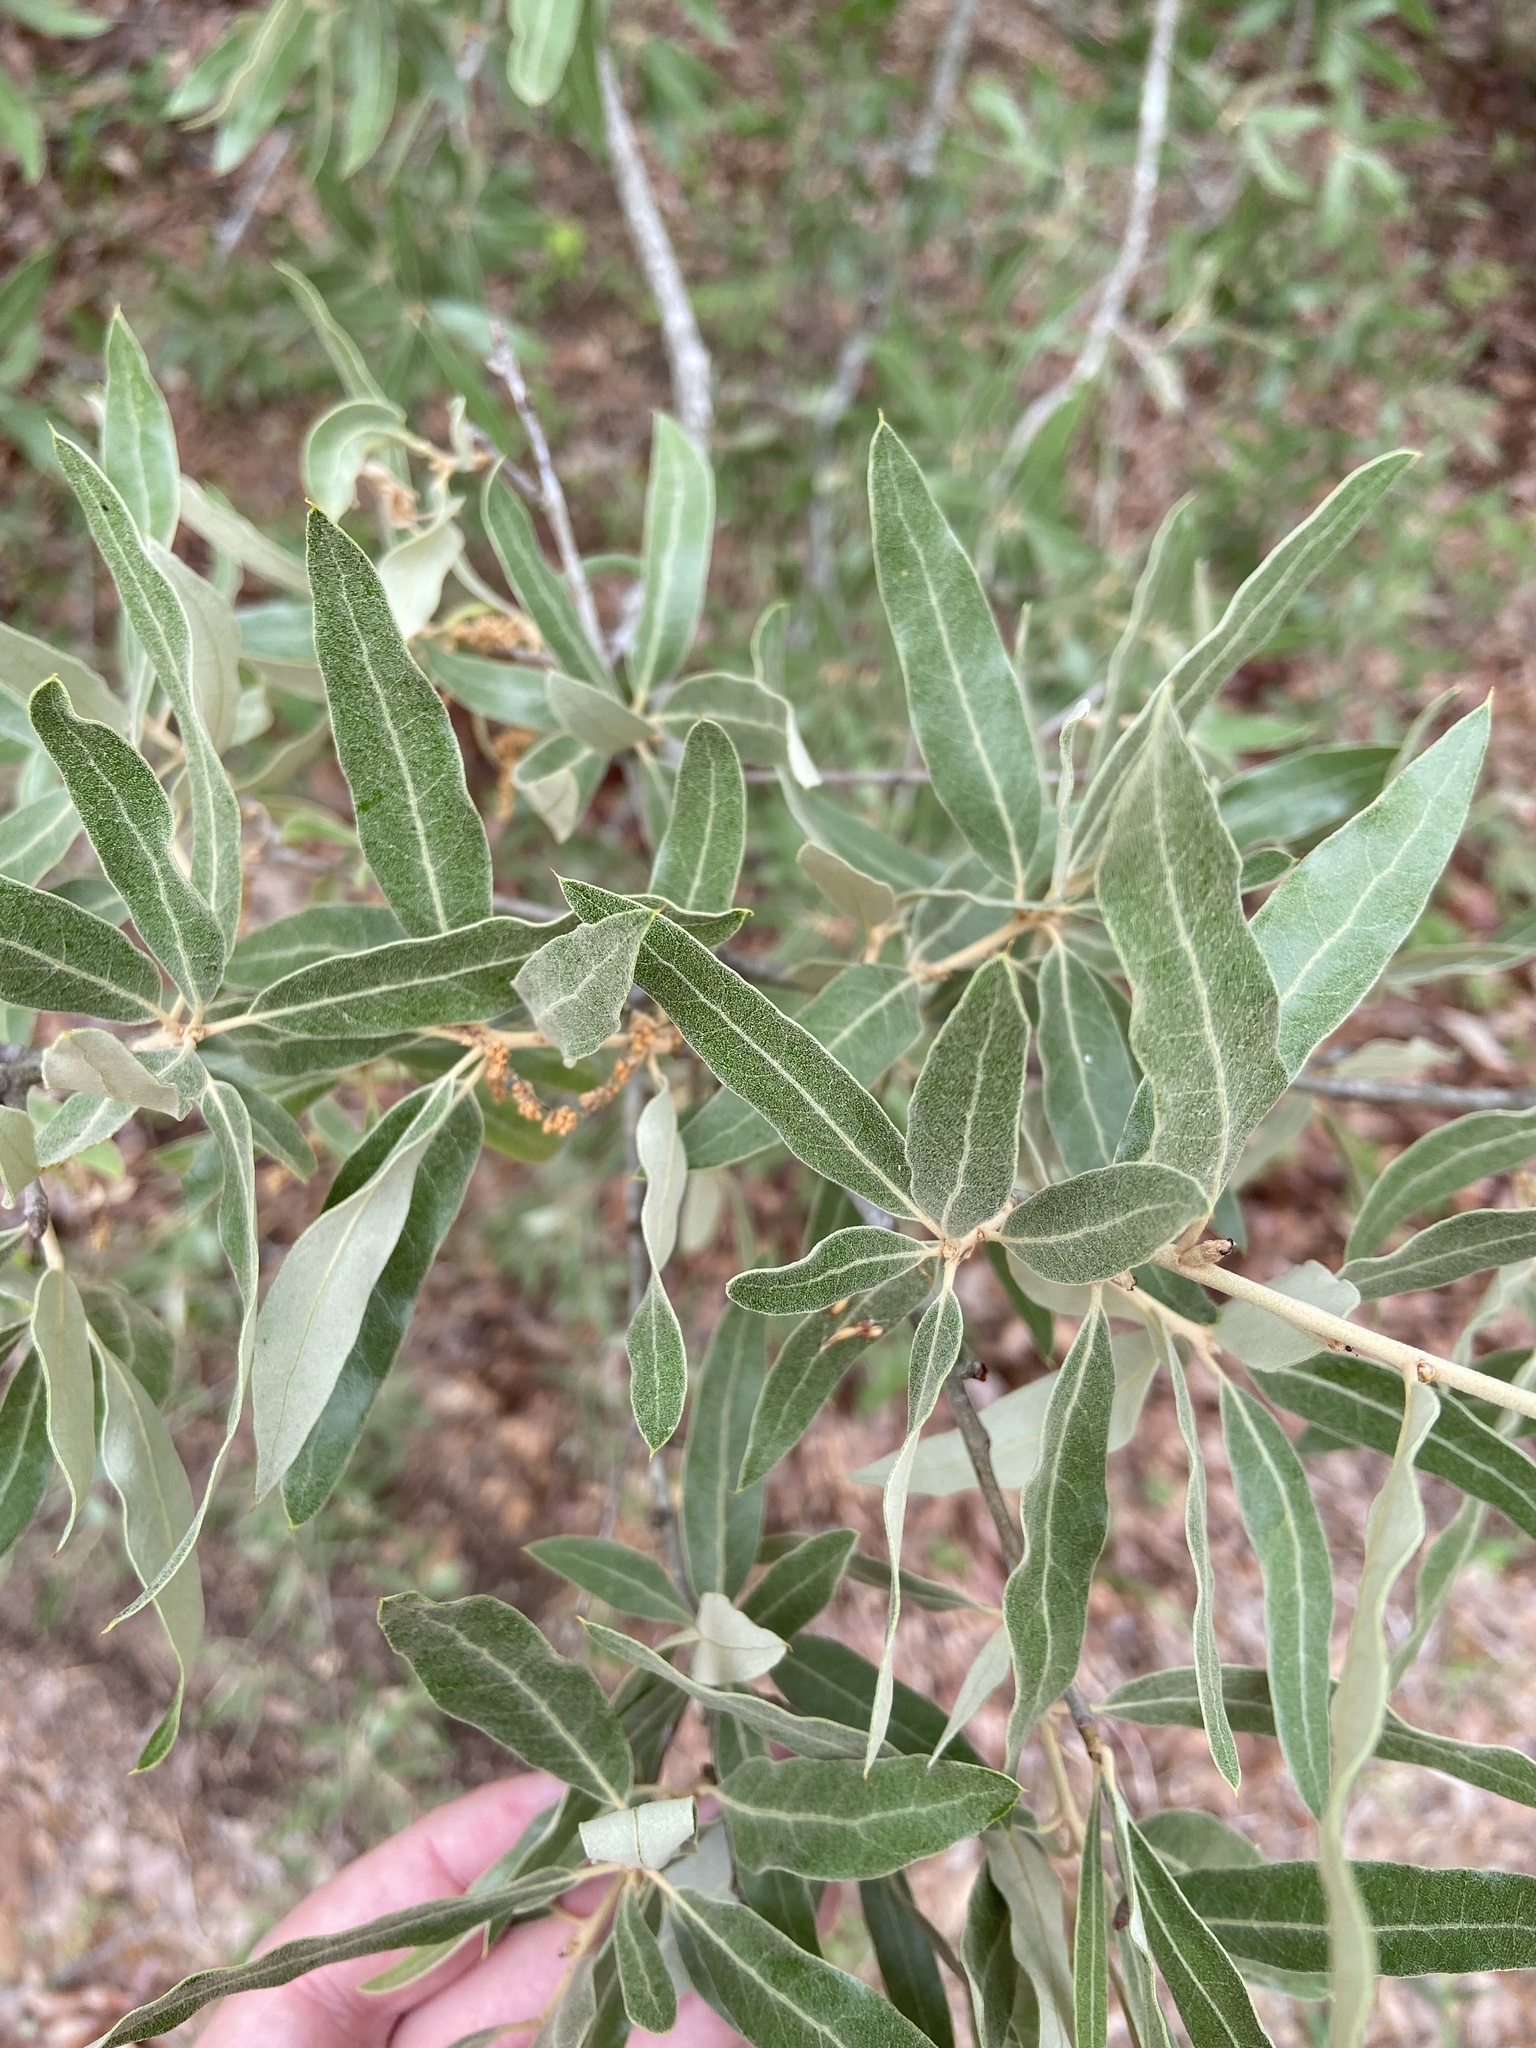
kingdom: Plantae
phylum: Tracheophyta
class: Magnoliopsida
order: Fagales
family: Fagaceae
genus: Quercus
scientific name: Quercus incana
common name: Bluejack oak
